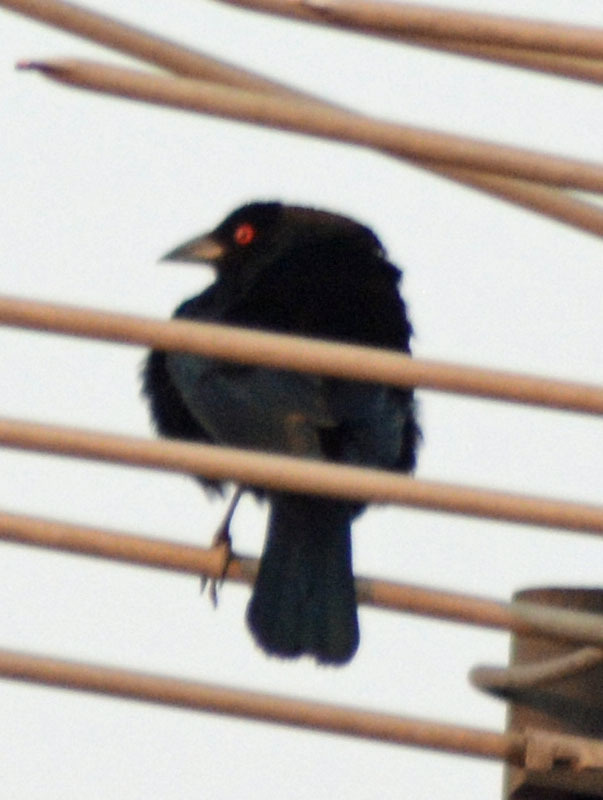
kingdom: Animalia
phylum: Chordata
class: Aves
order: Passeriformes
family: Icteridae
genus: Molothrus
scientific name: Molothrus aeneus
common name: Bronzed cowbird
